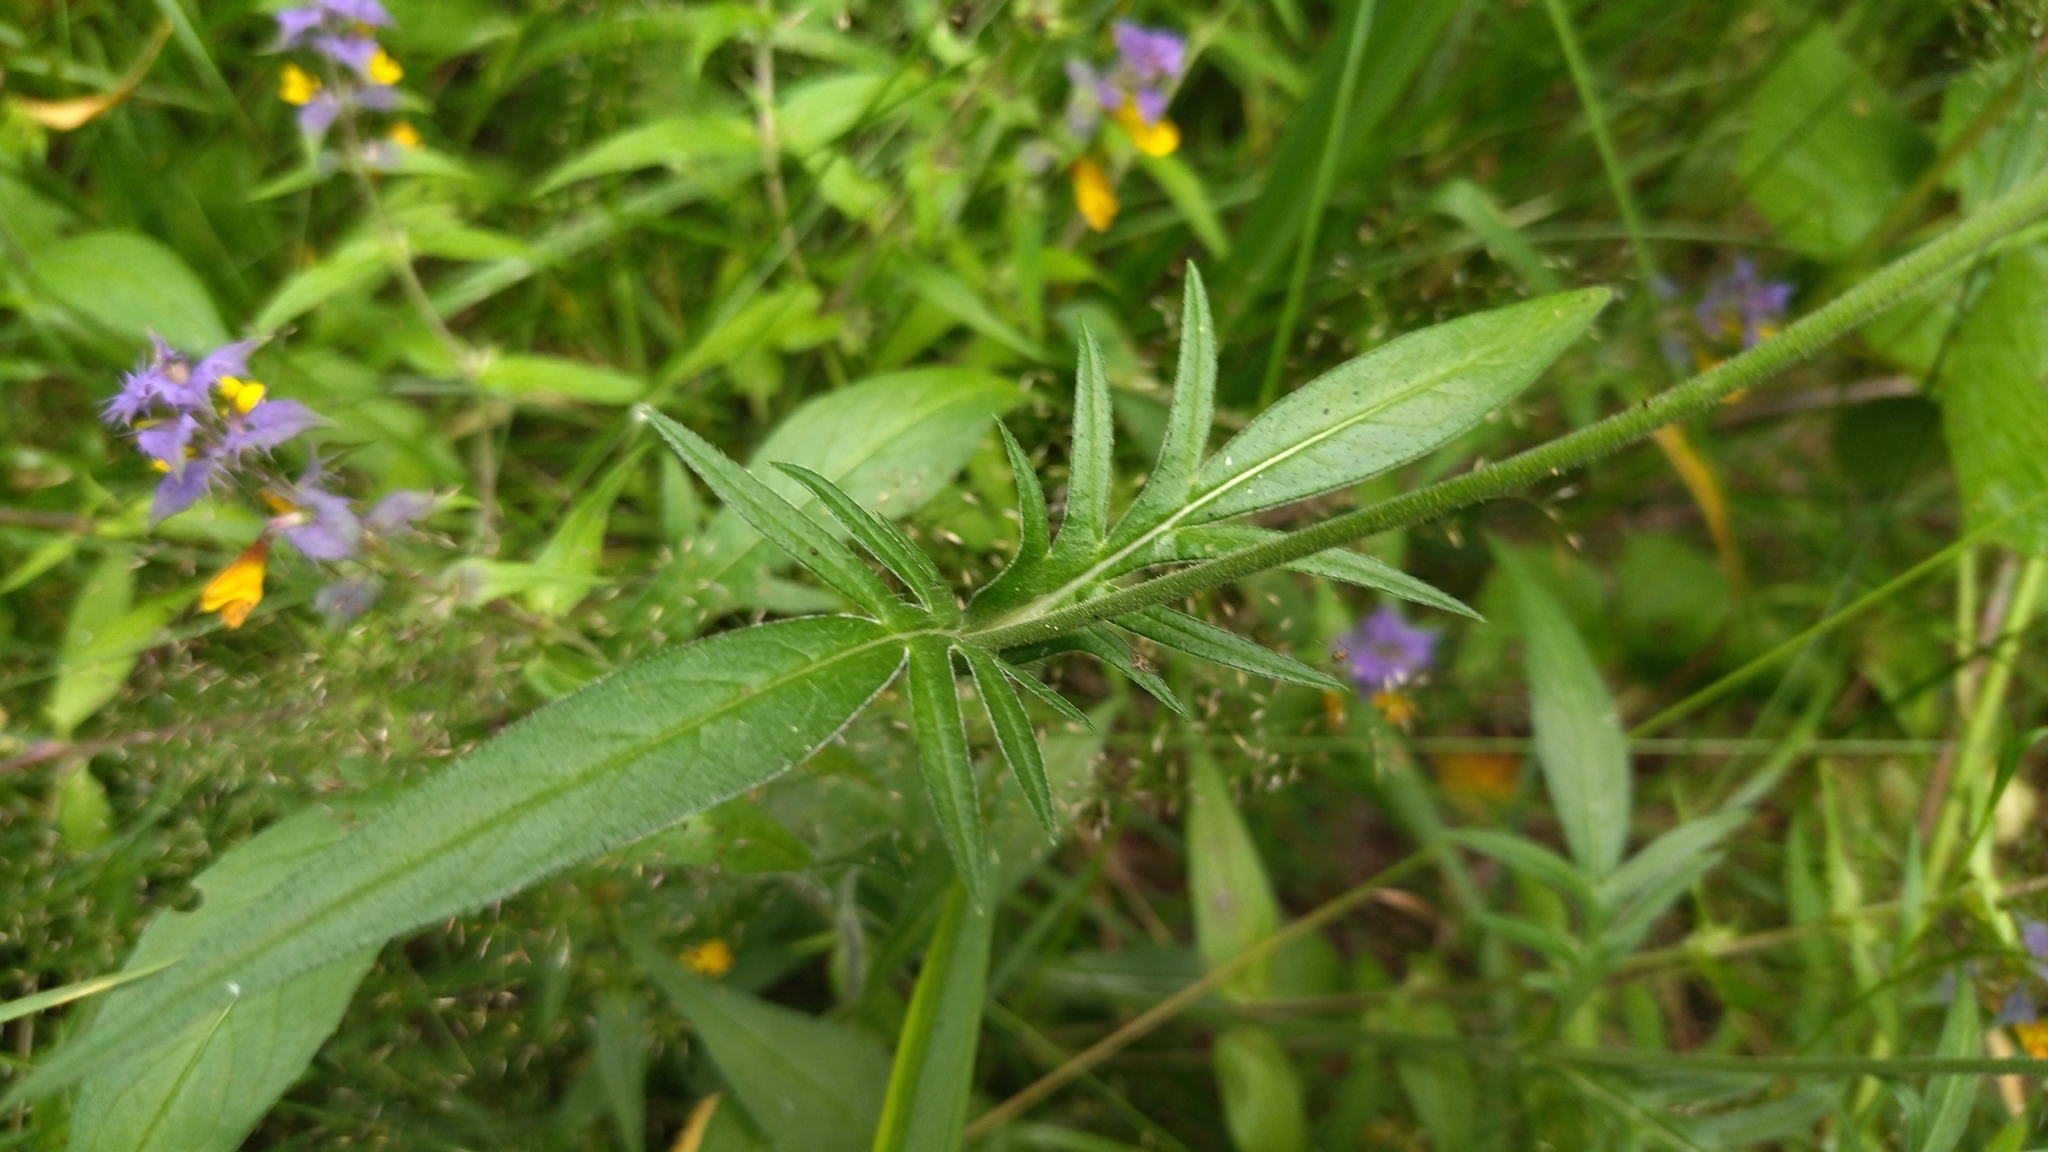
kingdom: Plantae
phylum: Tracheophyta
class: Magnoliopsida
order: Dipsacales
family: Caprifoliaceae
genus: Knautia
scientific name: Knautia arvensis
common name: Field scabiosa
